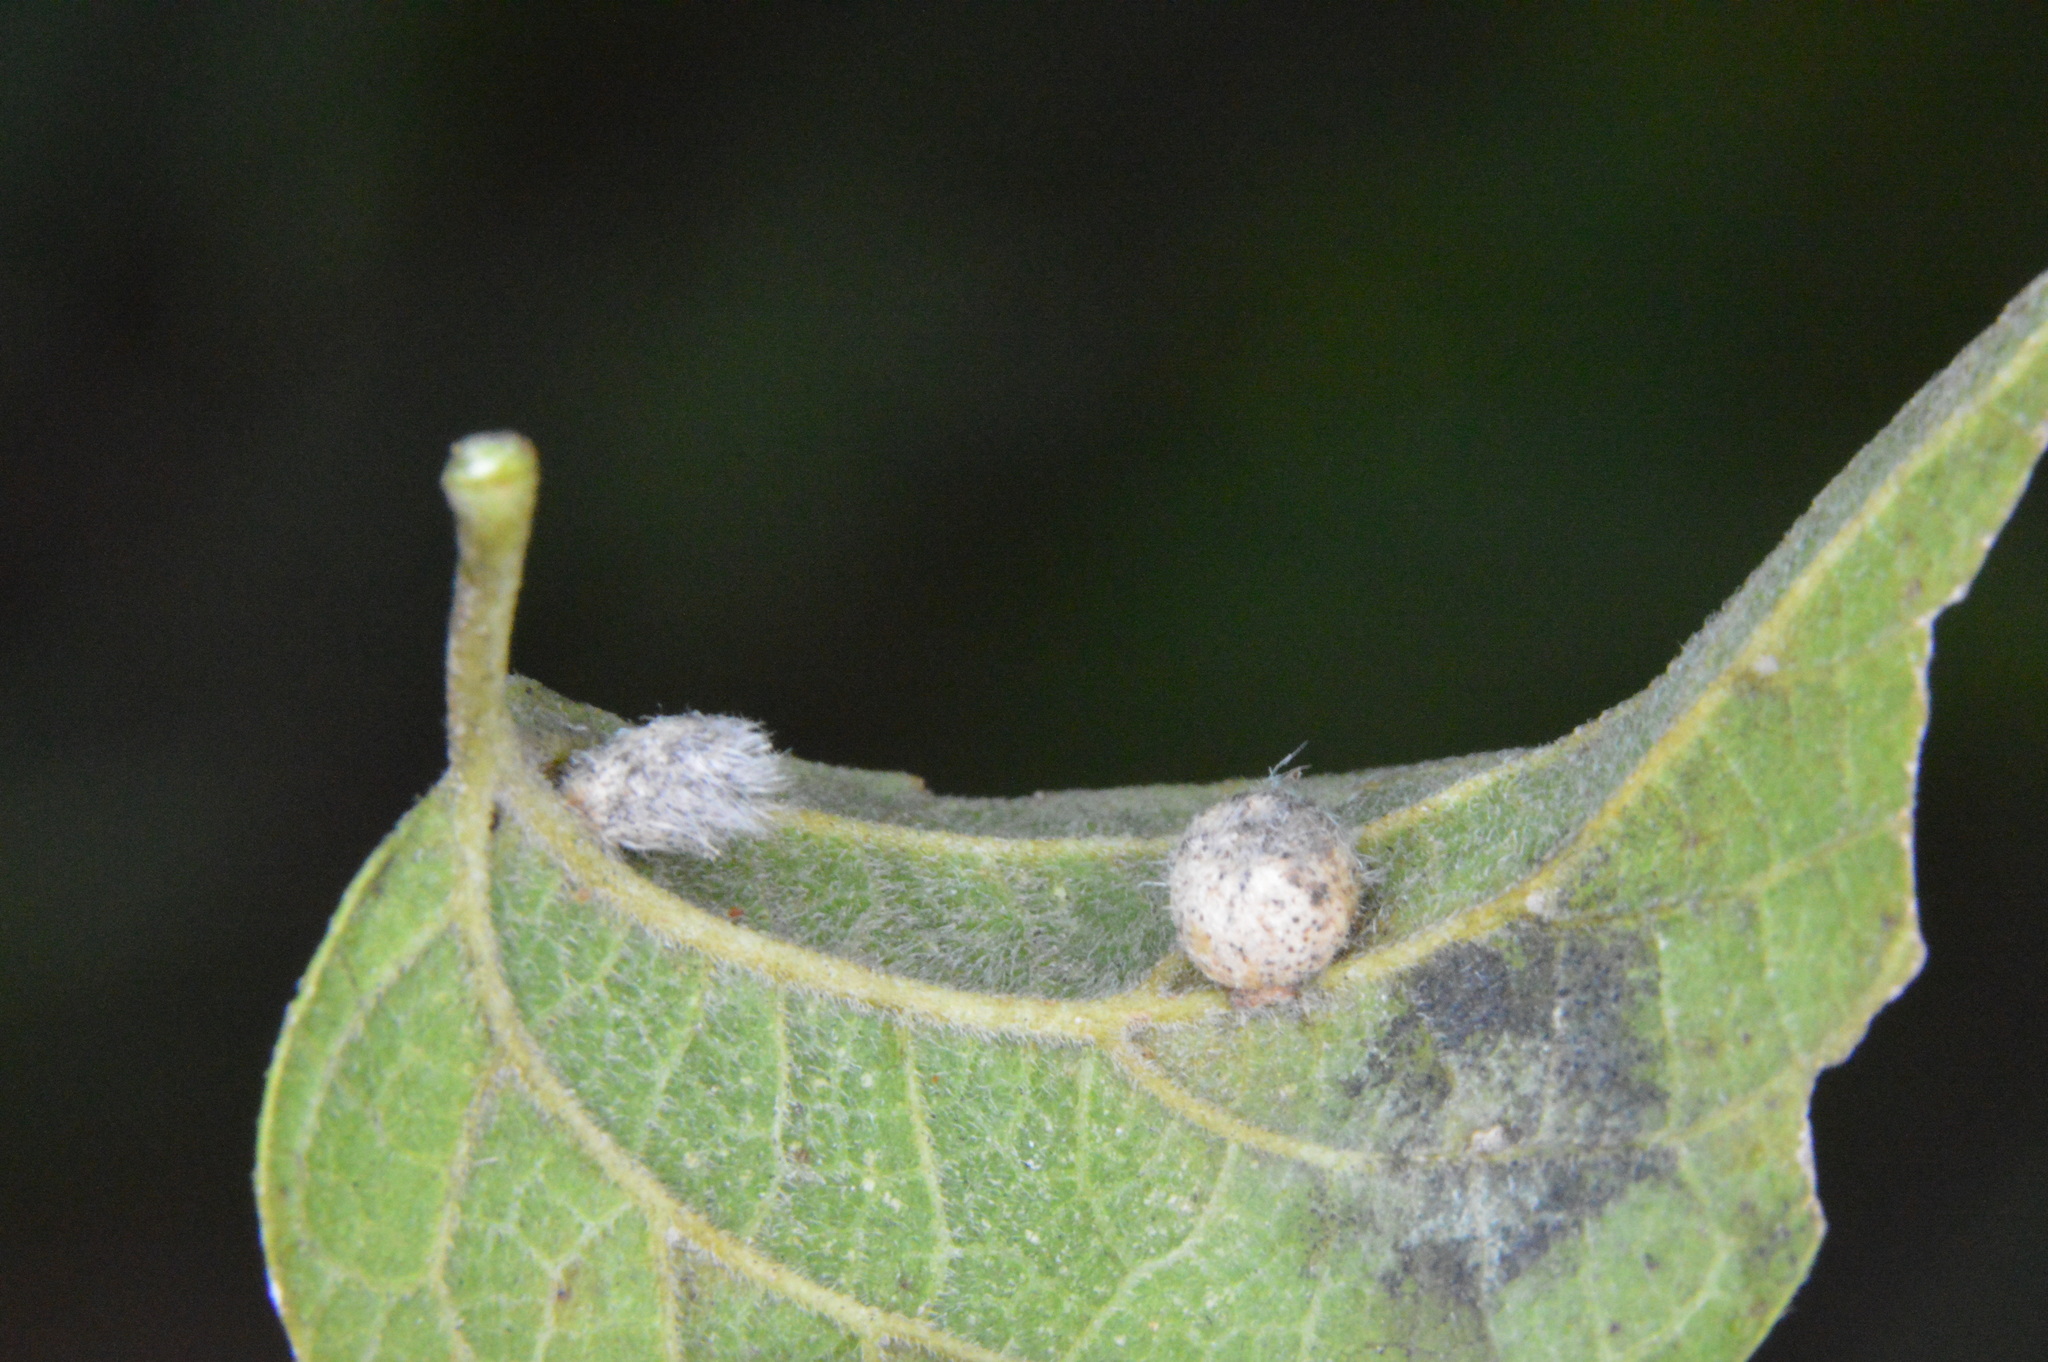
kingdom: Animalia
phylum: Arthropoda
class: Insecta
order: Diptera
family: Cecidomyiidae
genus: Celticecis
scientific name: Celticecis pubescens
